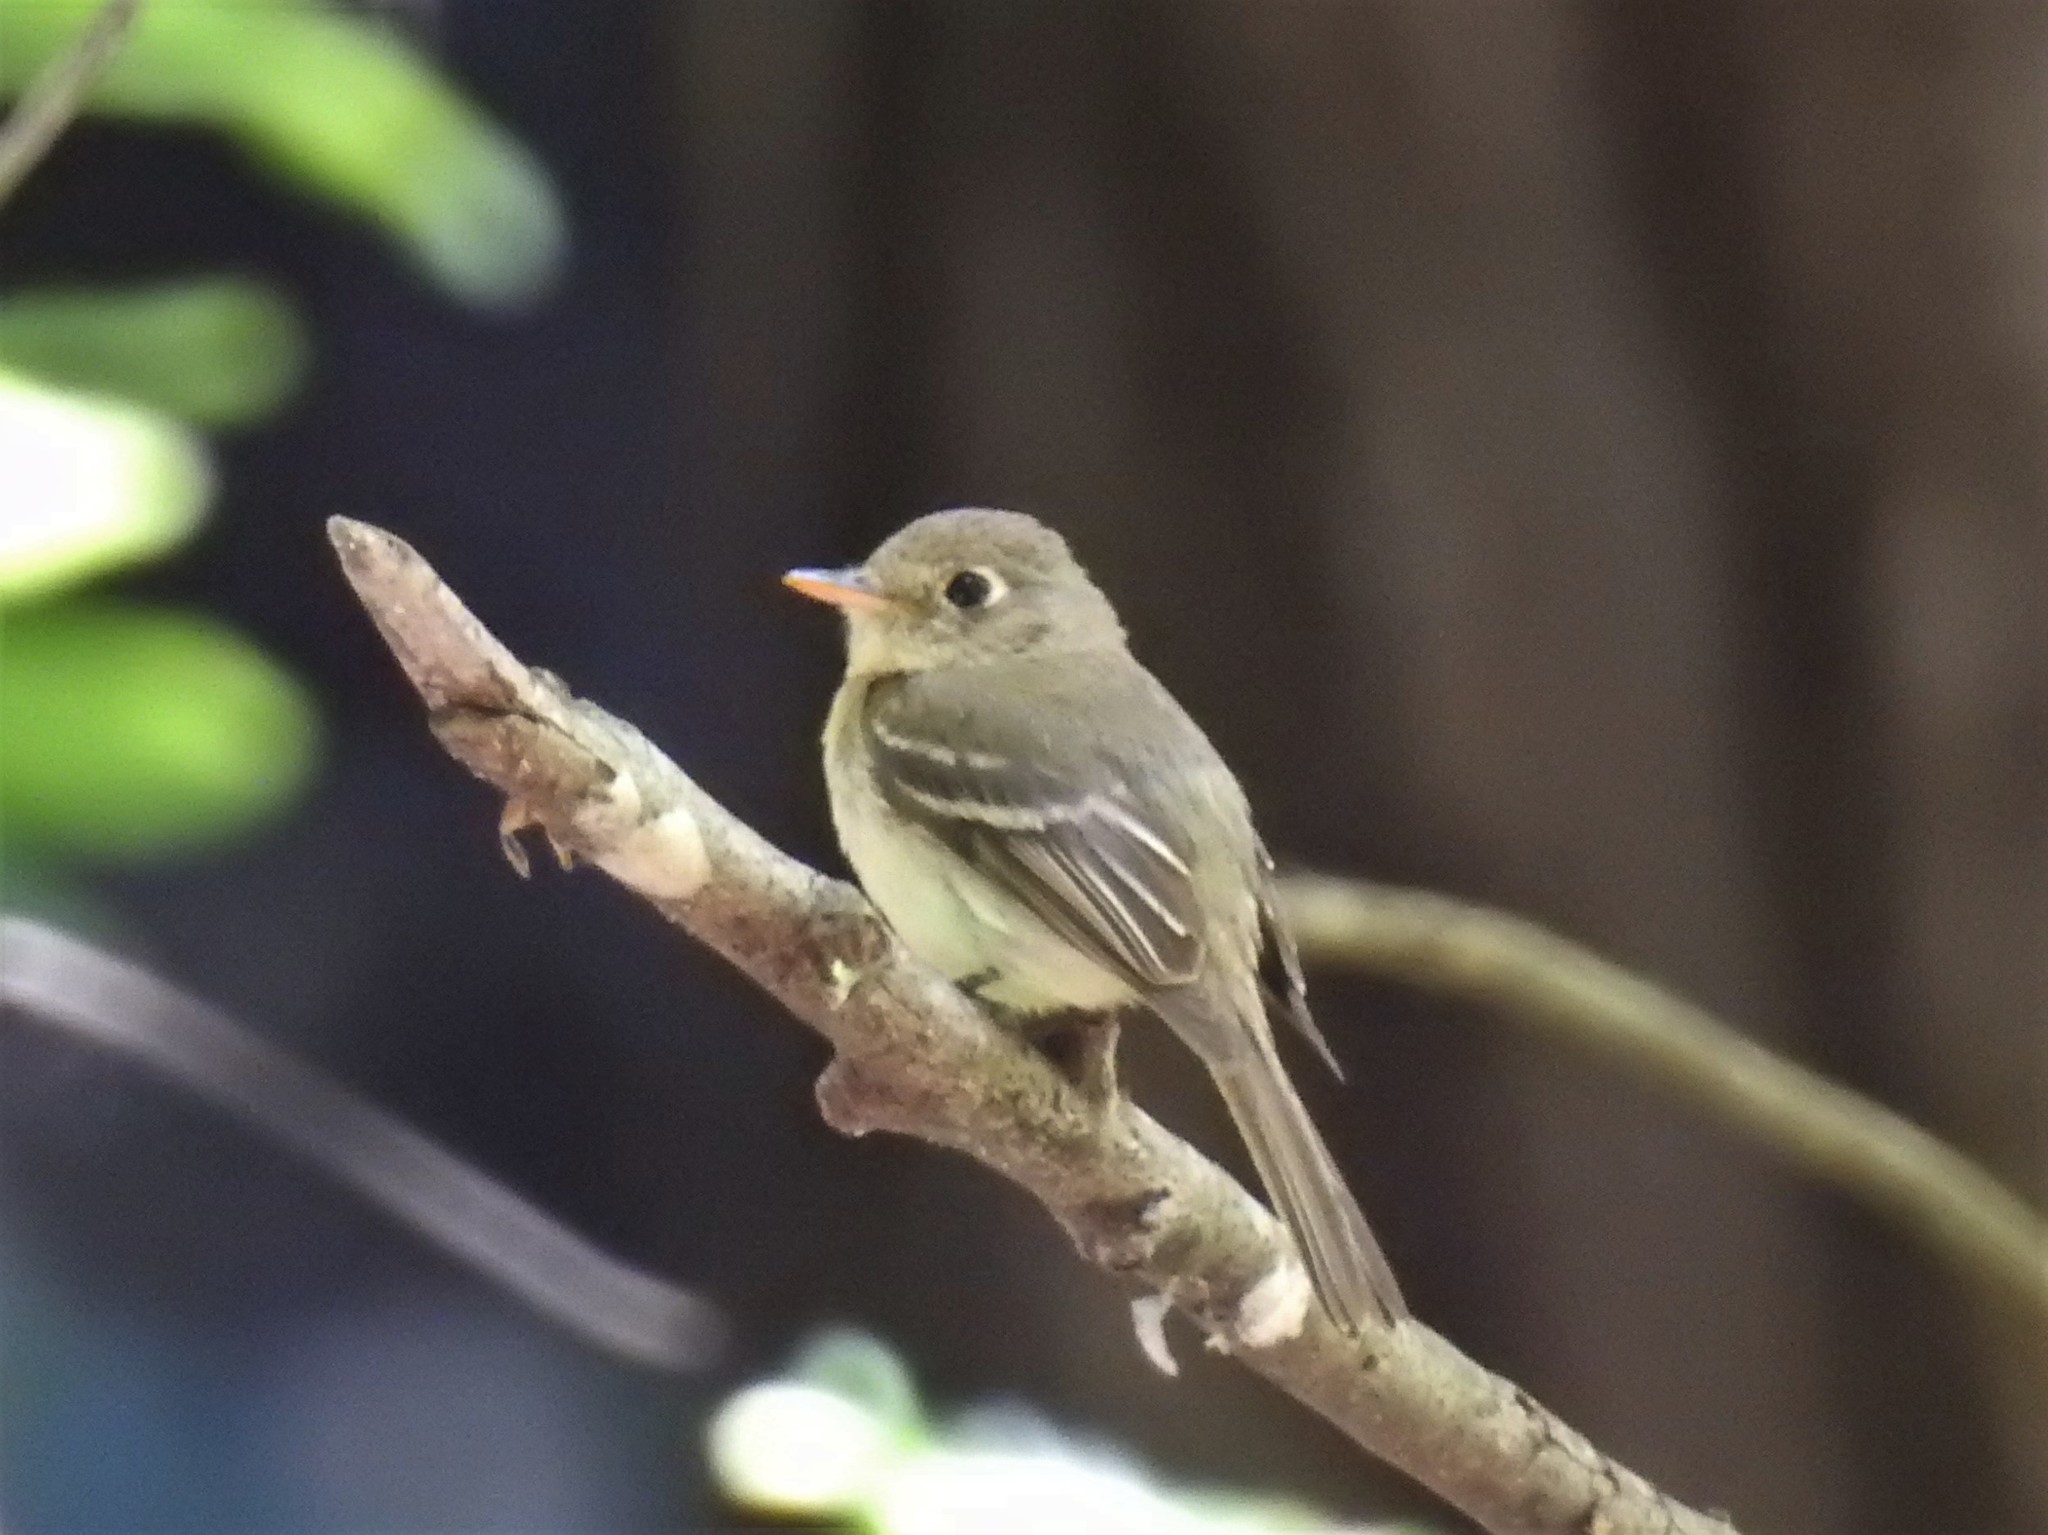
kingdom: Animalia
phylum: Chordata
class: Aves
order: Passeriformes
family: Tyrannidae
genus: Empidonax
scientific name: Empidonax difficilis
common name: Pacific-slope flycatcher
